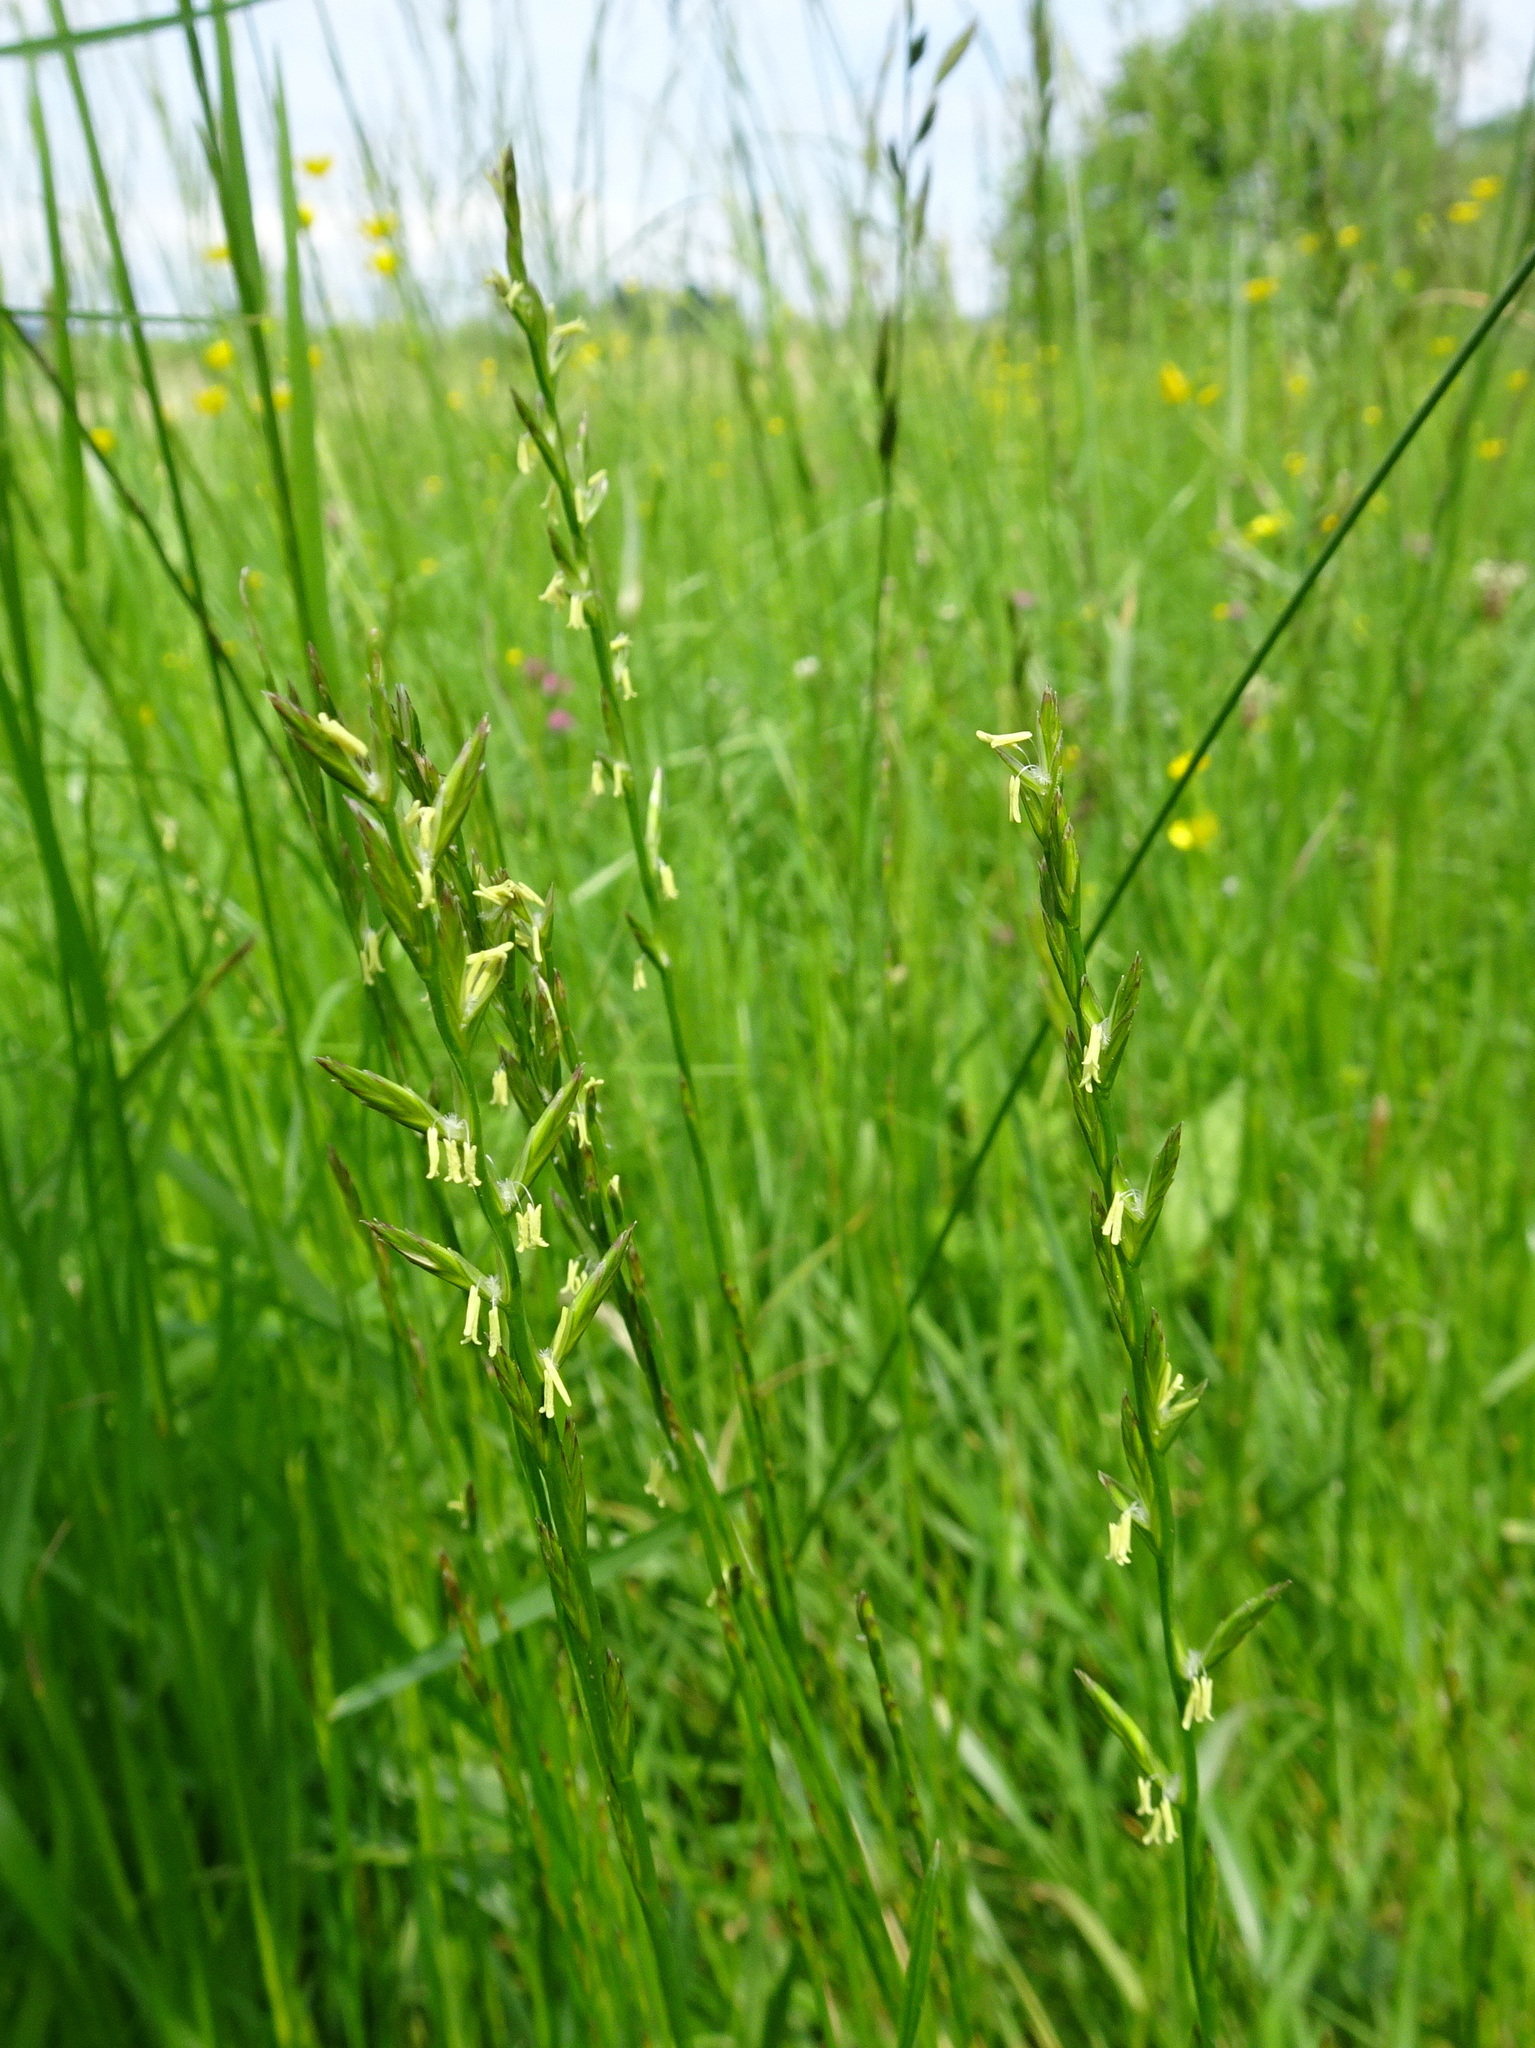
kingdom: Plantae
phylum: Tracheophyta
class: Liliopsida
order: Poales
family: Poaceae
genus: Lolium
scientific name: Lolium perenne
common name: Perennial ryegrass
